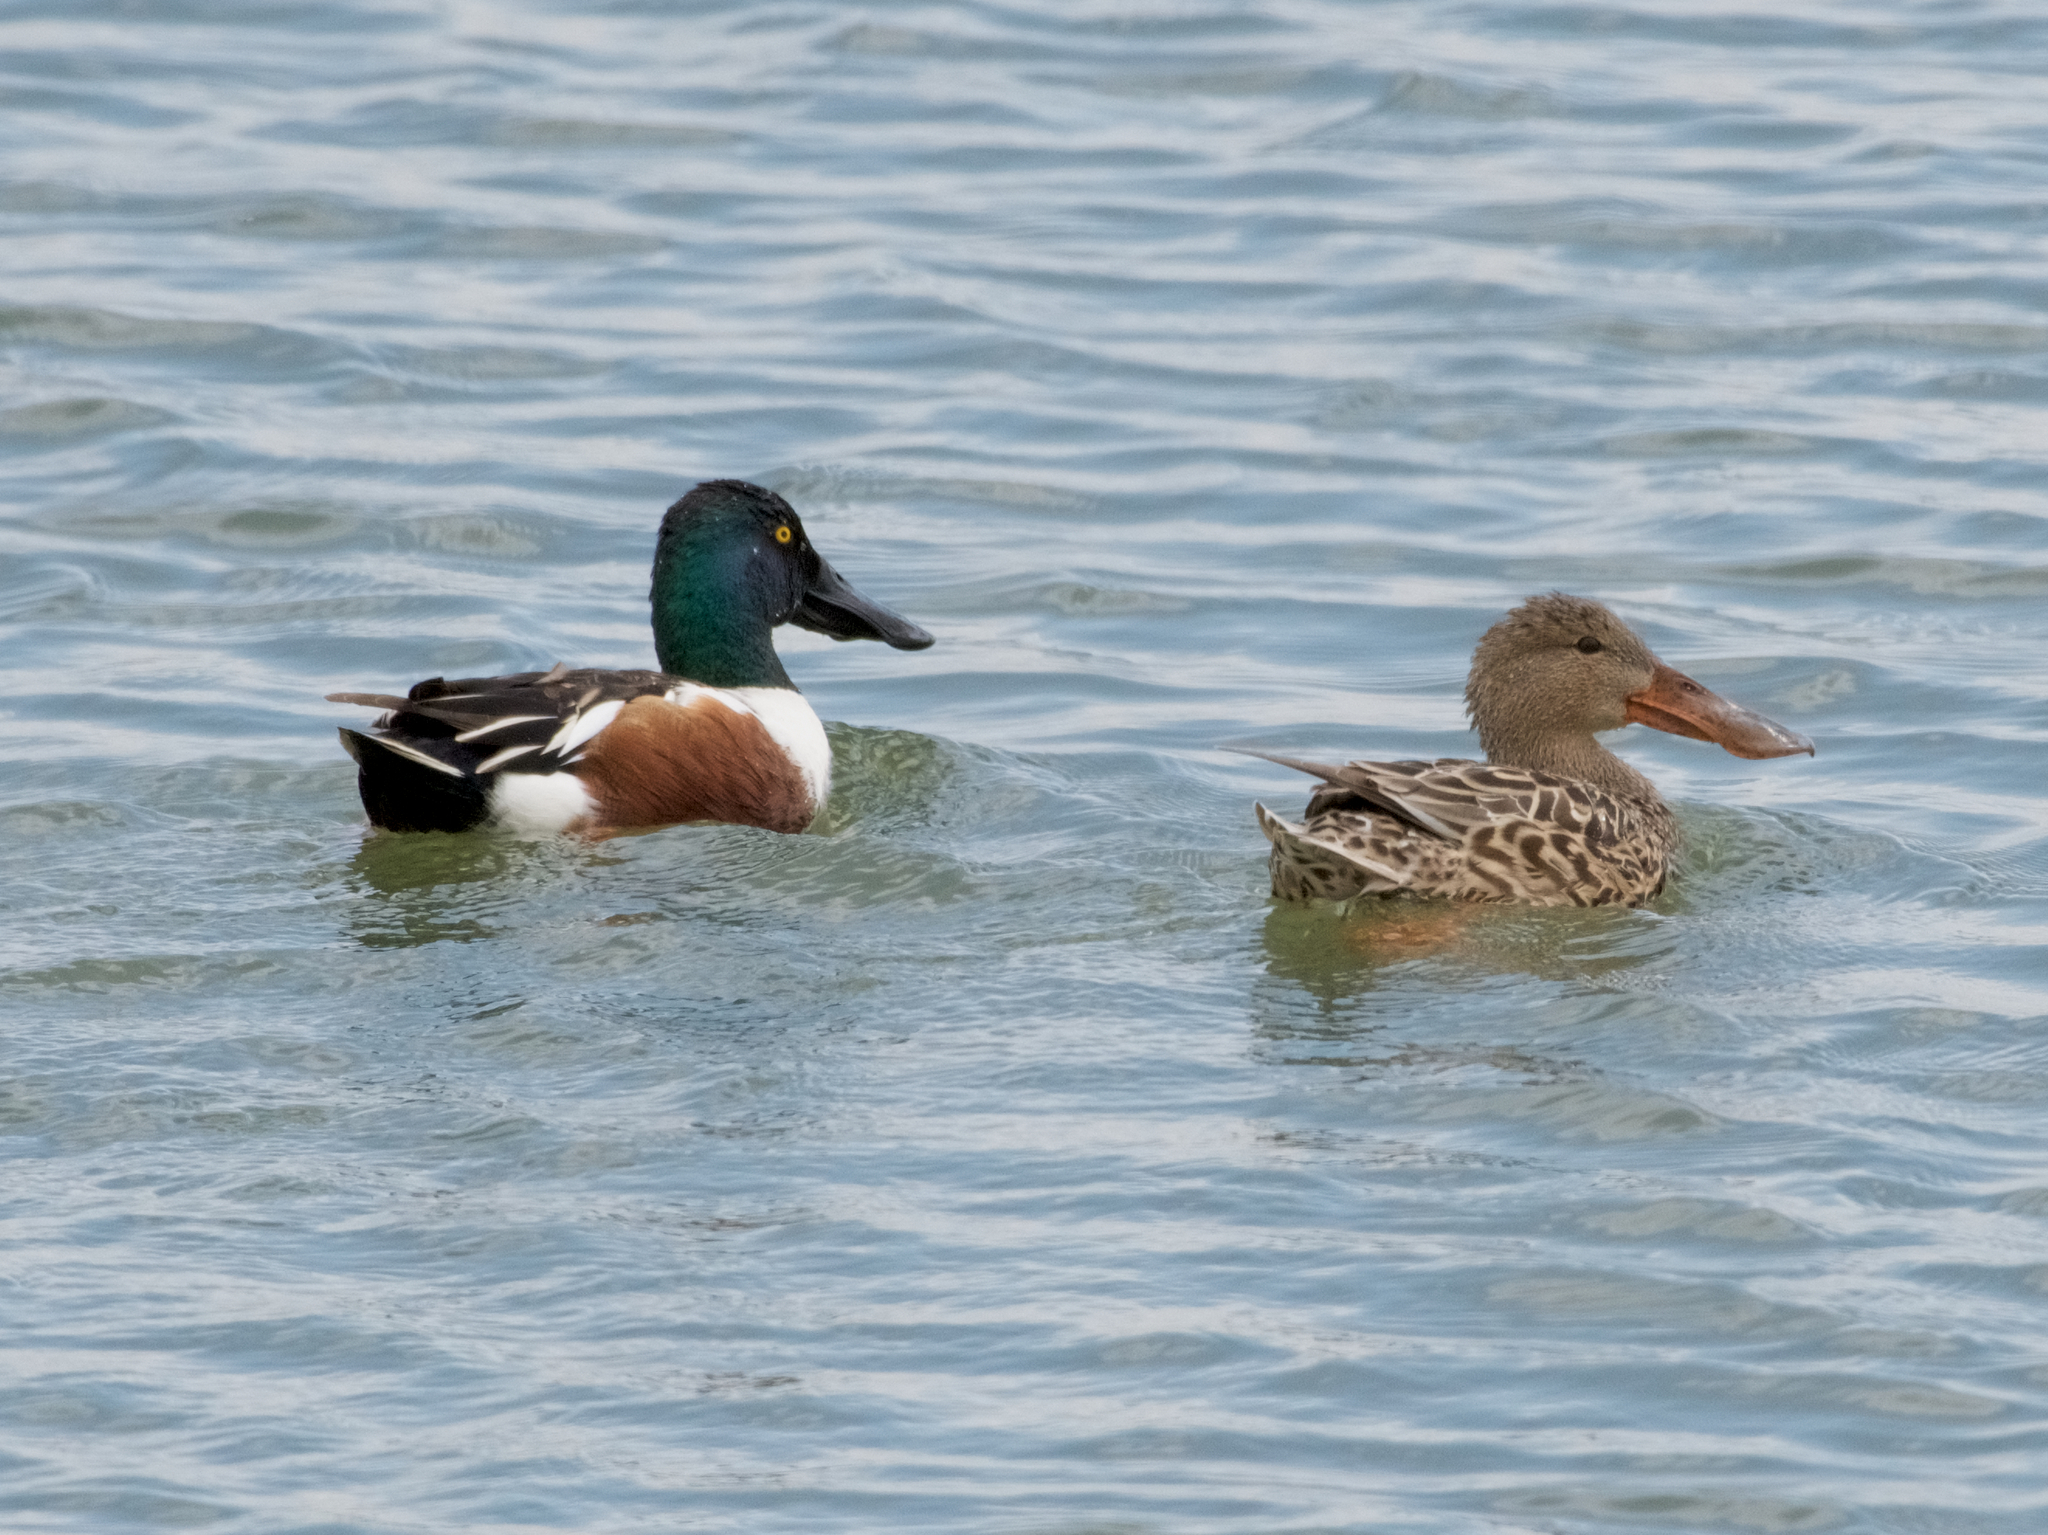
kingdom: Animalia
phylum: Chordata
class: Aves
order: Anseriformes
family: Anatidae
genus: Spatula
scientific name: Spatula clypeata
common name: Northern shoveler
